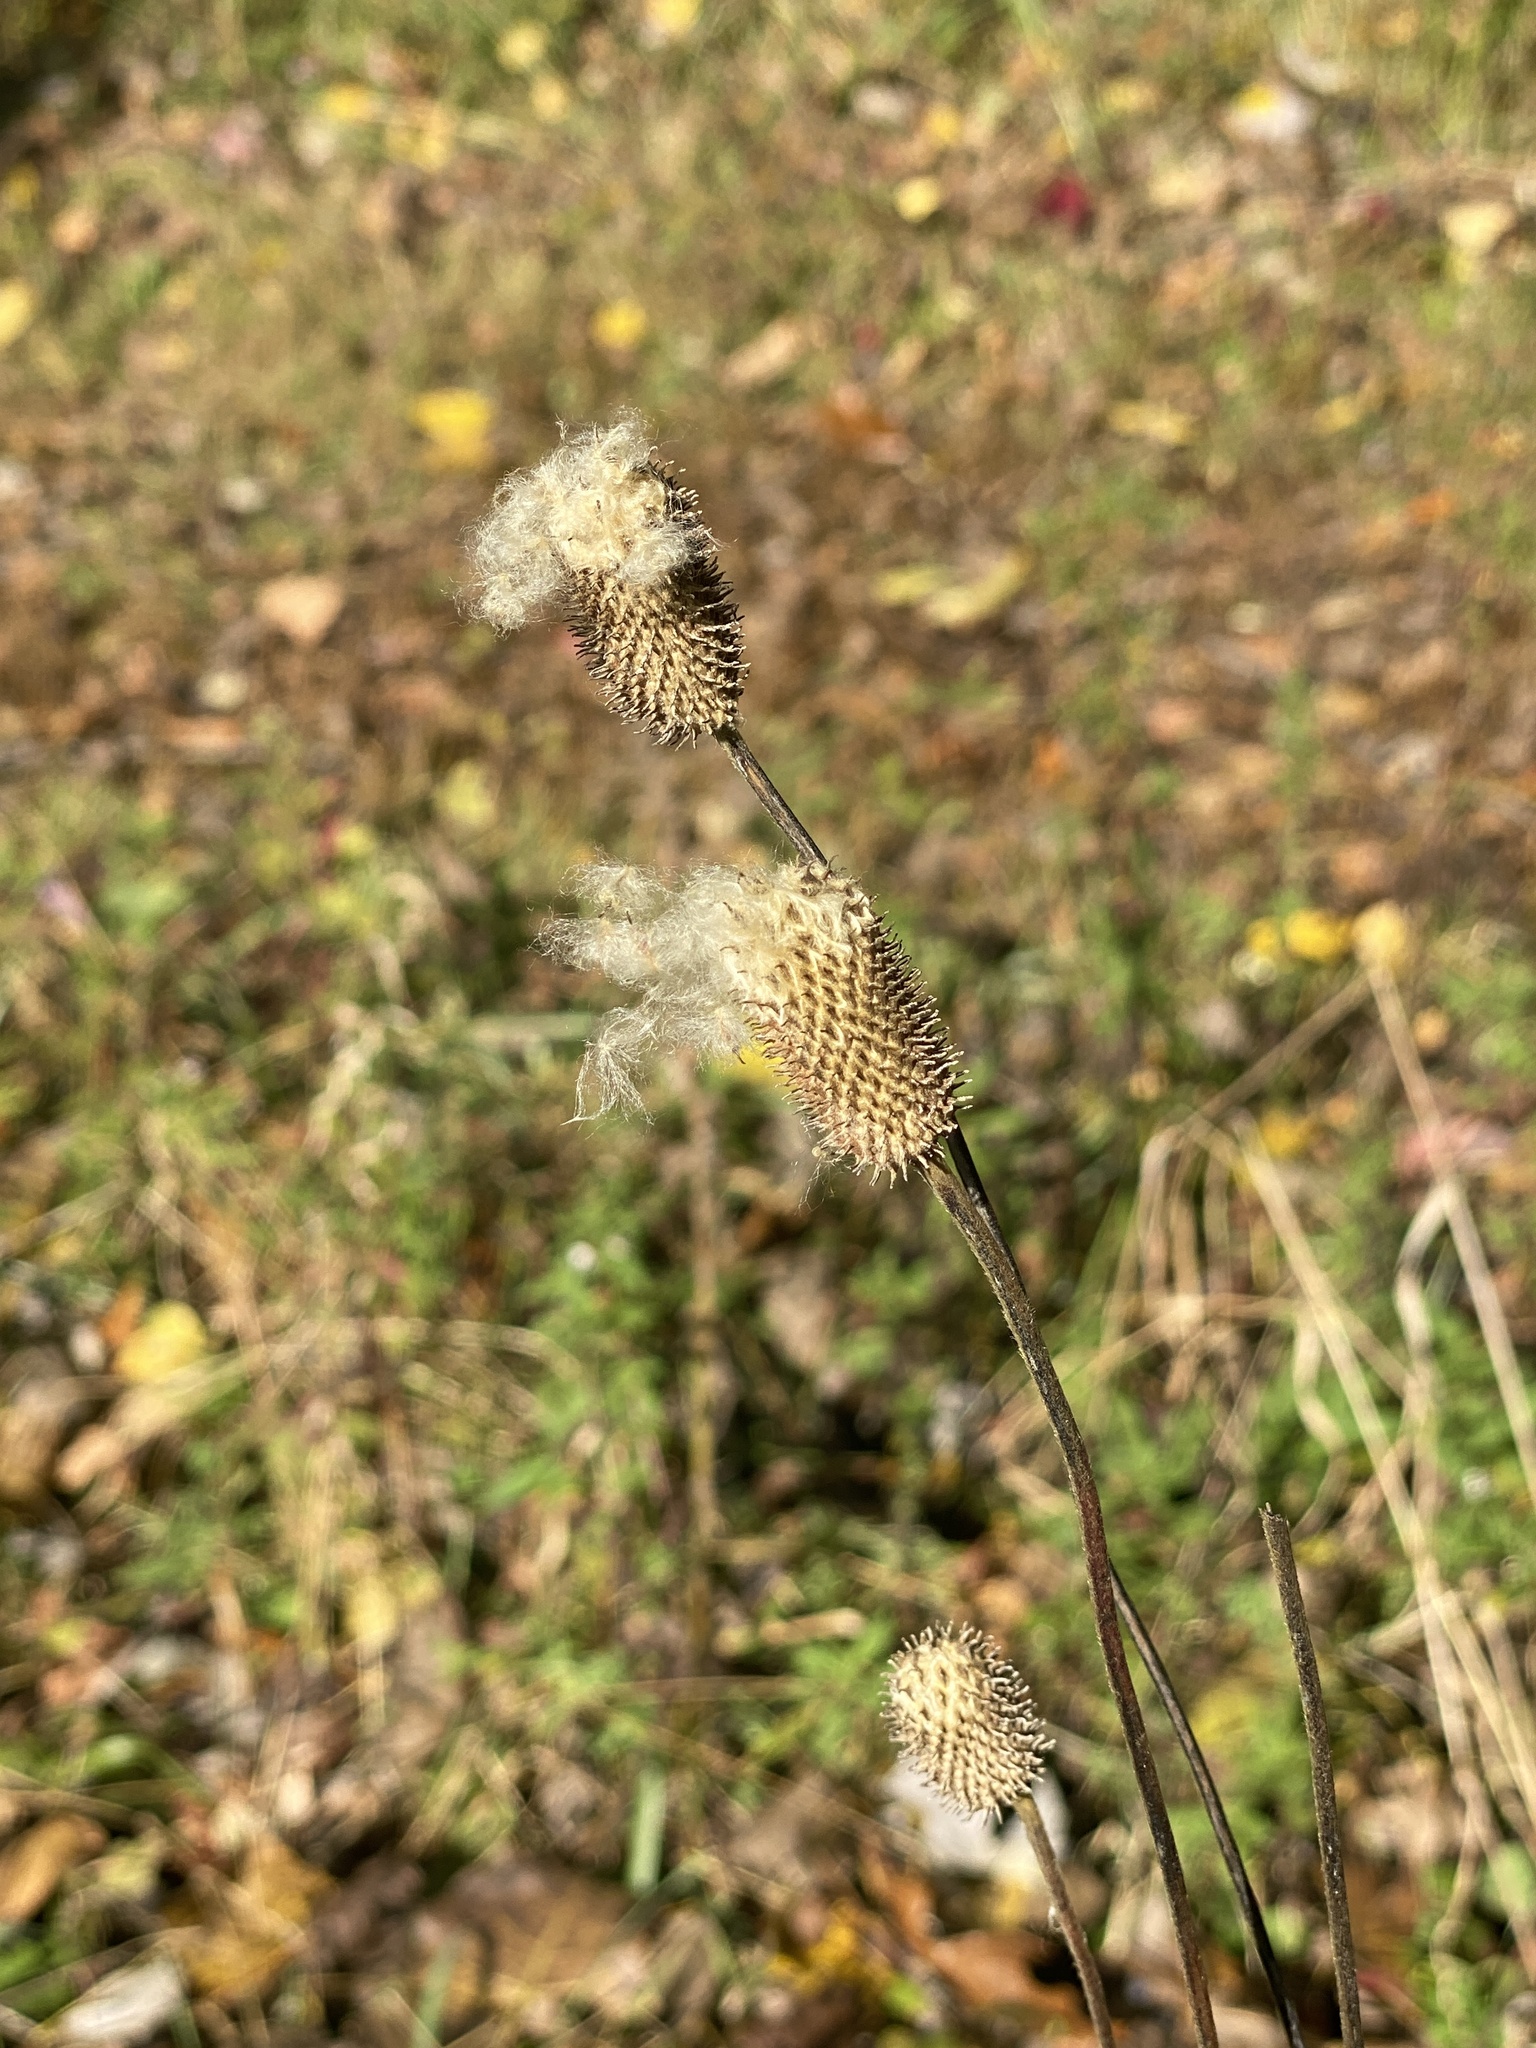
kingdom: Plantae
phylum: Tracheophyta
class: Magnoliopsida
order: Ranunculales
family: Ranunculaceae
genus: Anemone
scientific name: Anemone virginiana
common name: Tall anemone
